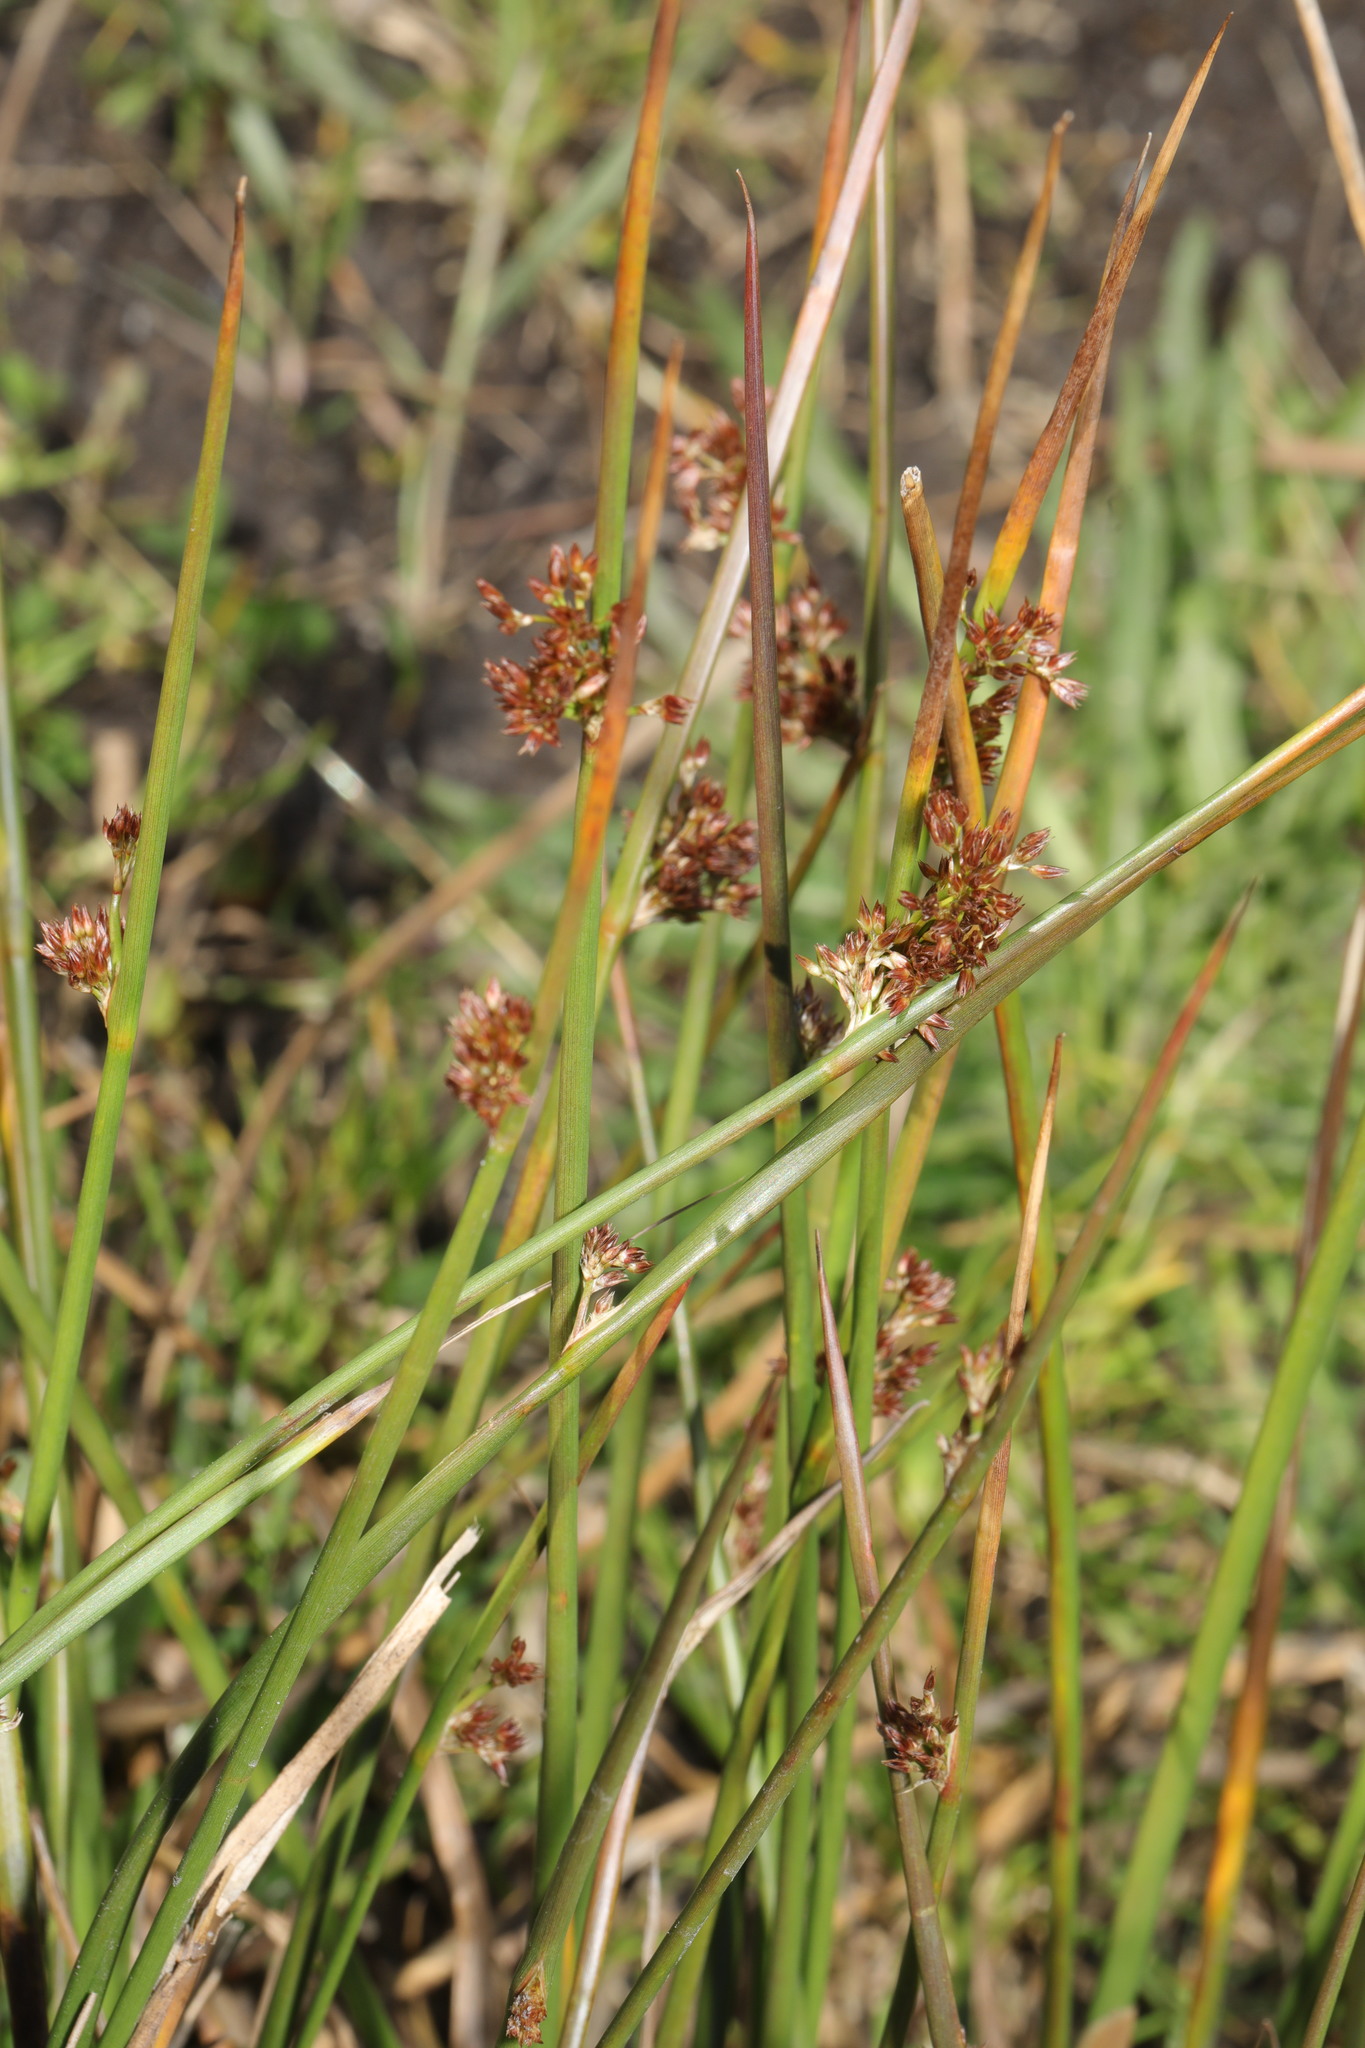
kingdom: Plantae
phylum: Tracheophyta
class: Liliopsida
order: Poales
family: Juncaceae
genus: Juncus
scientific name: Juncus effusus
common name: Soft rush
